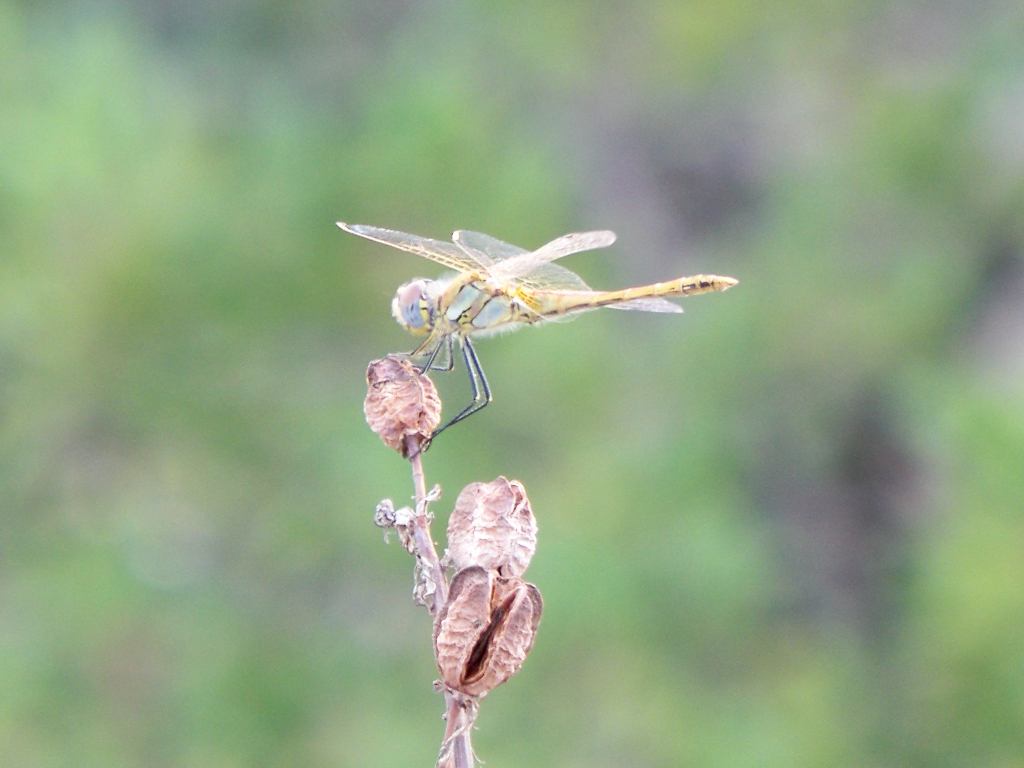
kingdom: Animalia
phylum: Arthropoda
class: Insecta
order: Odonata
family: Libellulidae
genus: Sympetrum
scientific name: Sympetrum fonscolombii
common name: Red-veined darter
